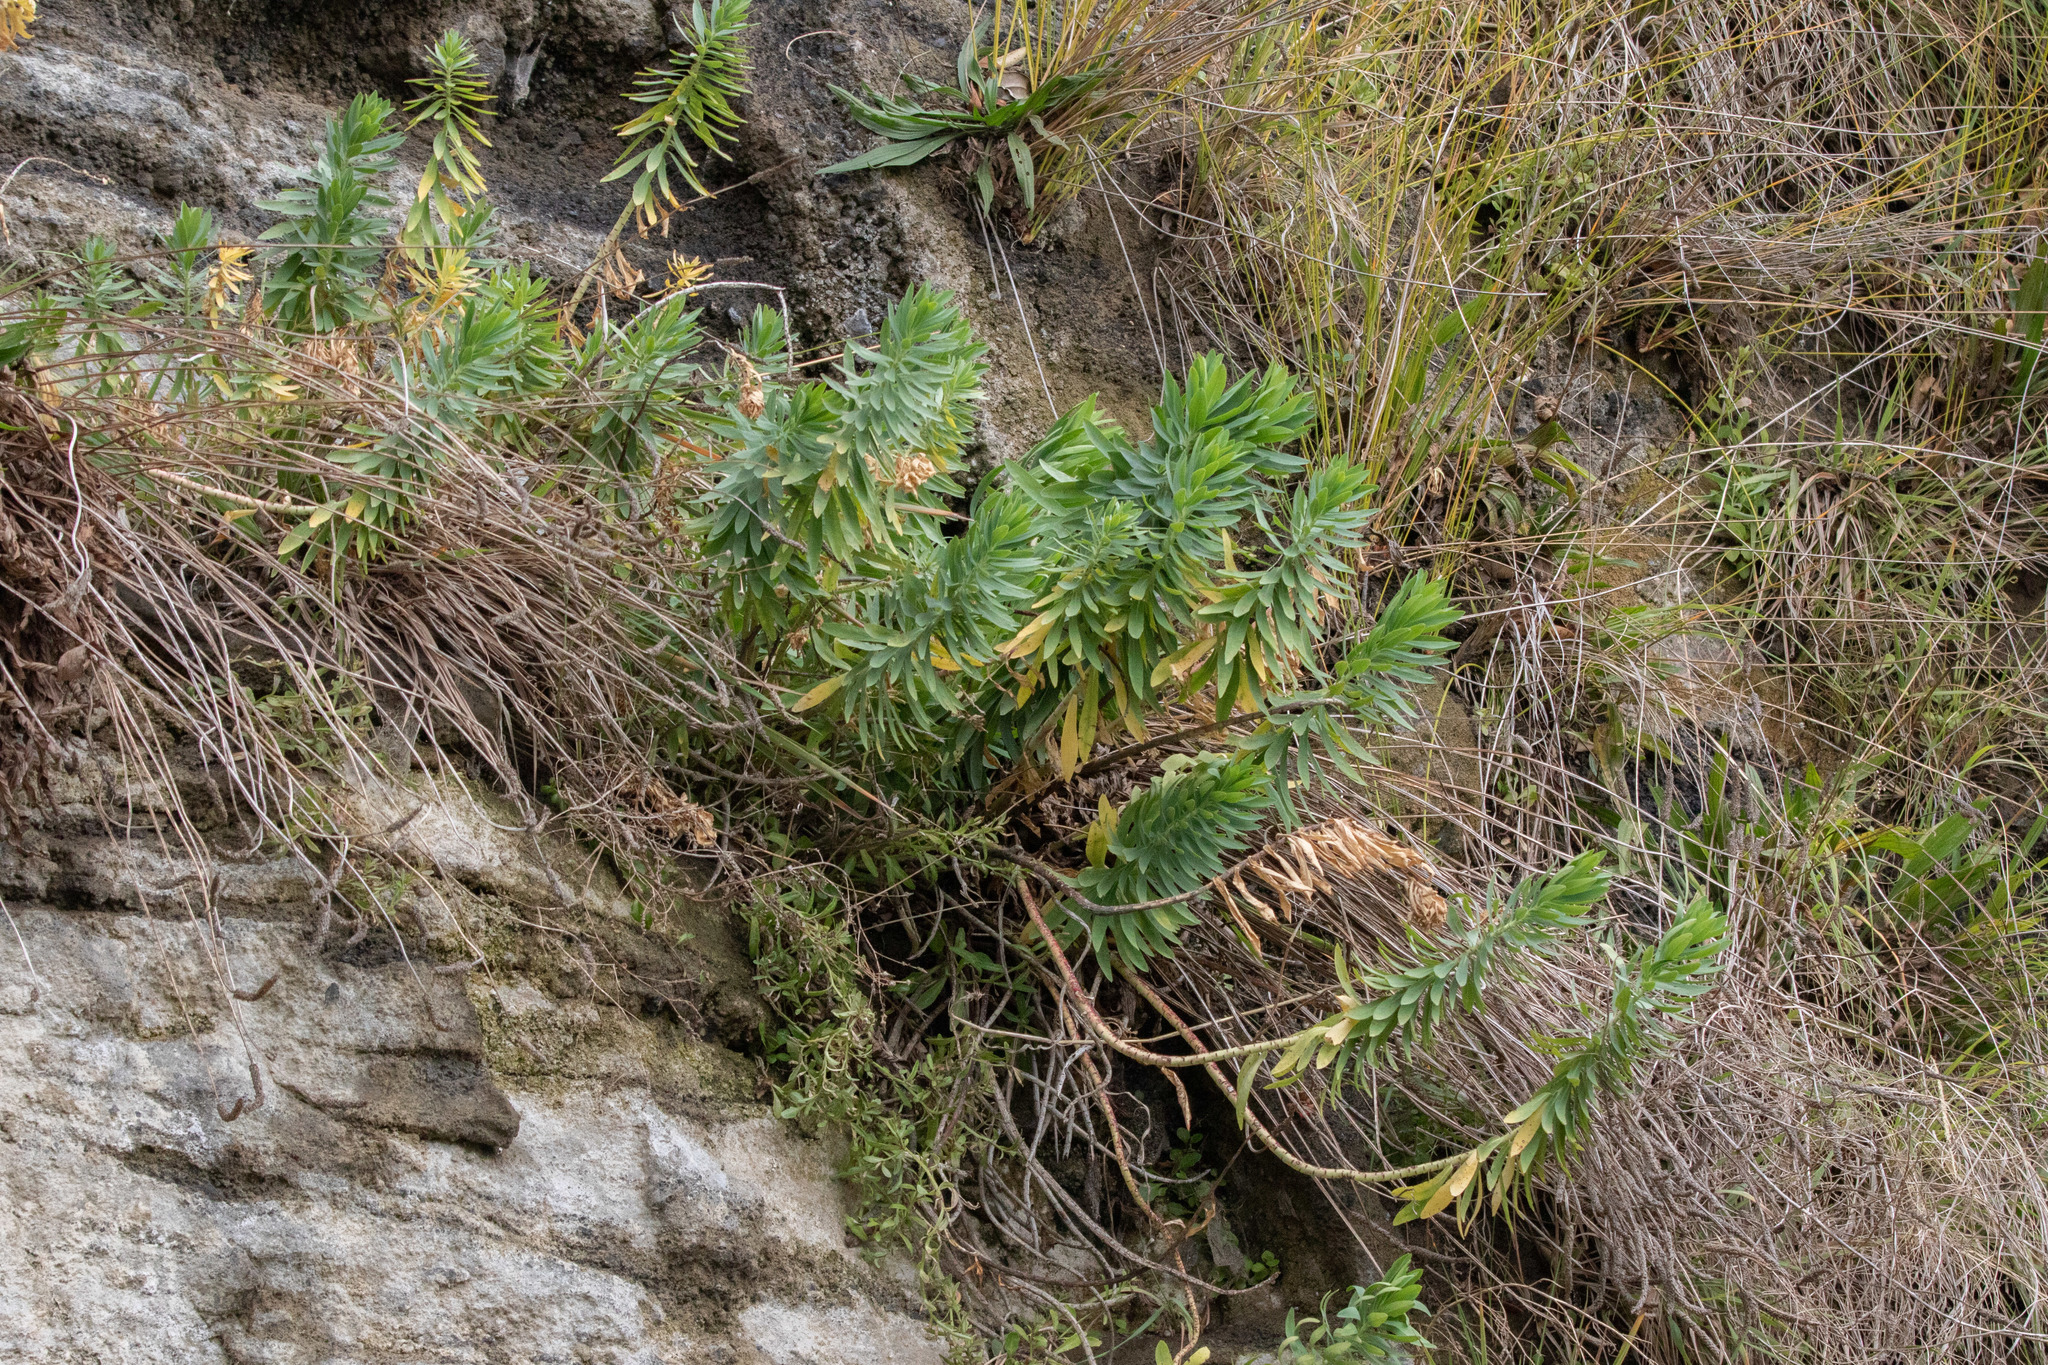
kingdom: Plantae
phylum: Tracheophyta
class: Magnoliopsida
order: Malpighiales
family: Euphorbiaceae
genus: Euphorbia
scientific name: Euphorbia glauca
